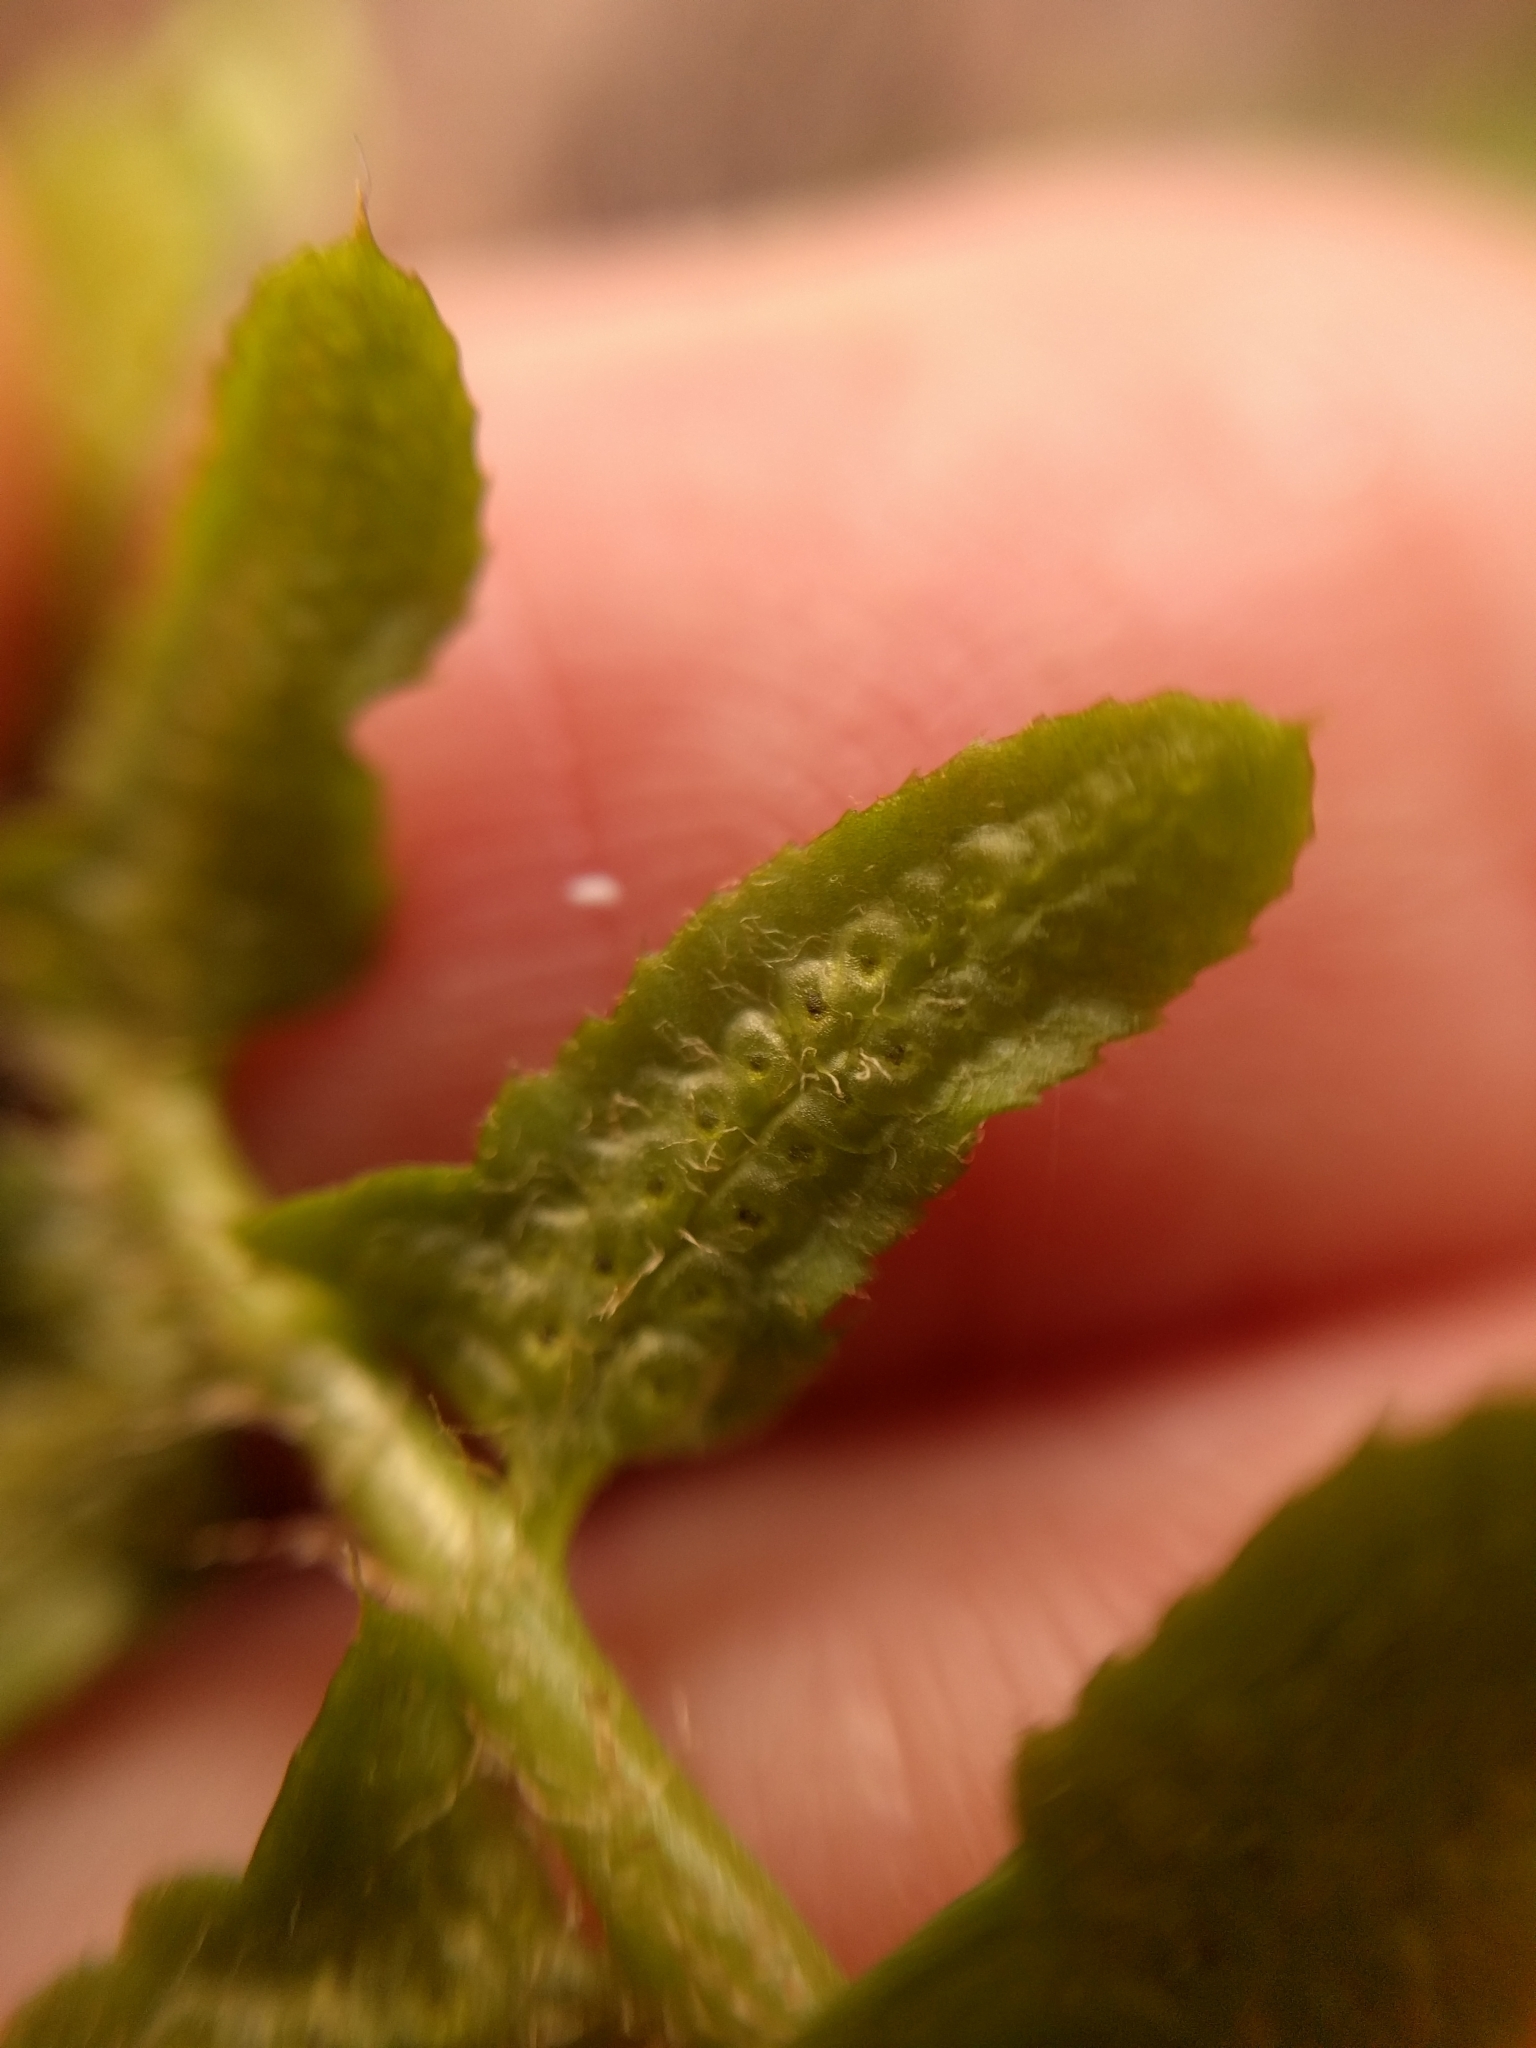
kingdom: Plantae
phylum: Tracheophyta
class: Polypodiopsida
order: Polypodiales
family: Dryopteridaceae
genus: Polystichum
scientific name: Polystichum acrostichoides
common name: Christmas fern
